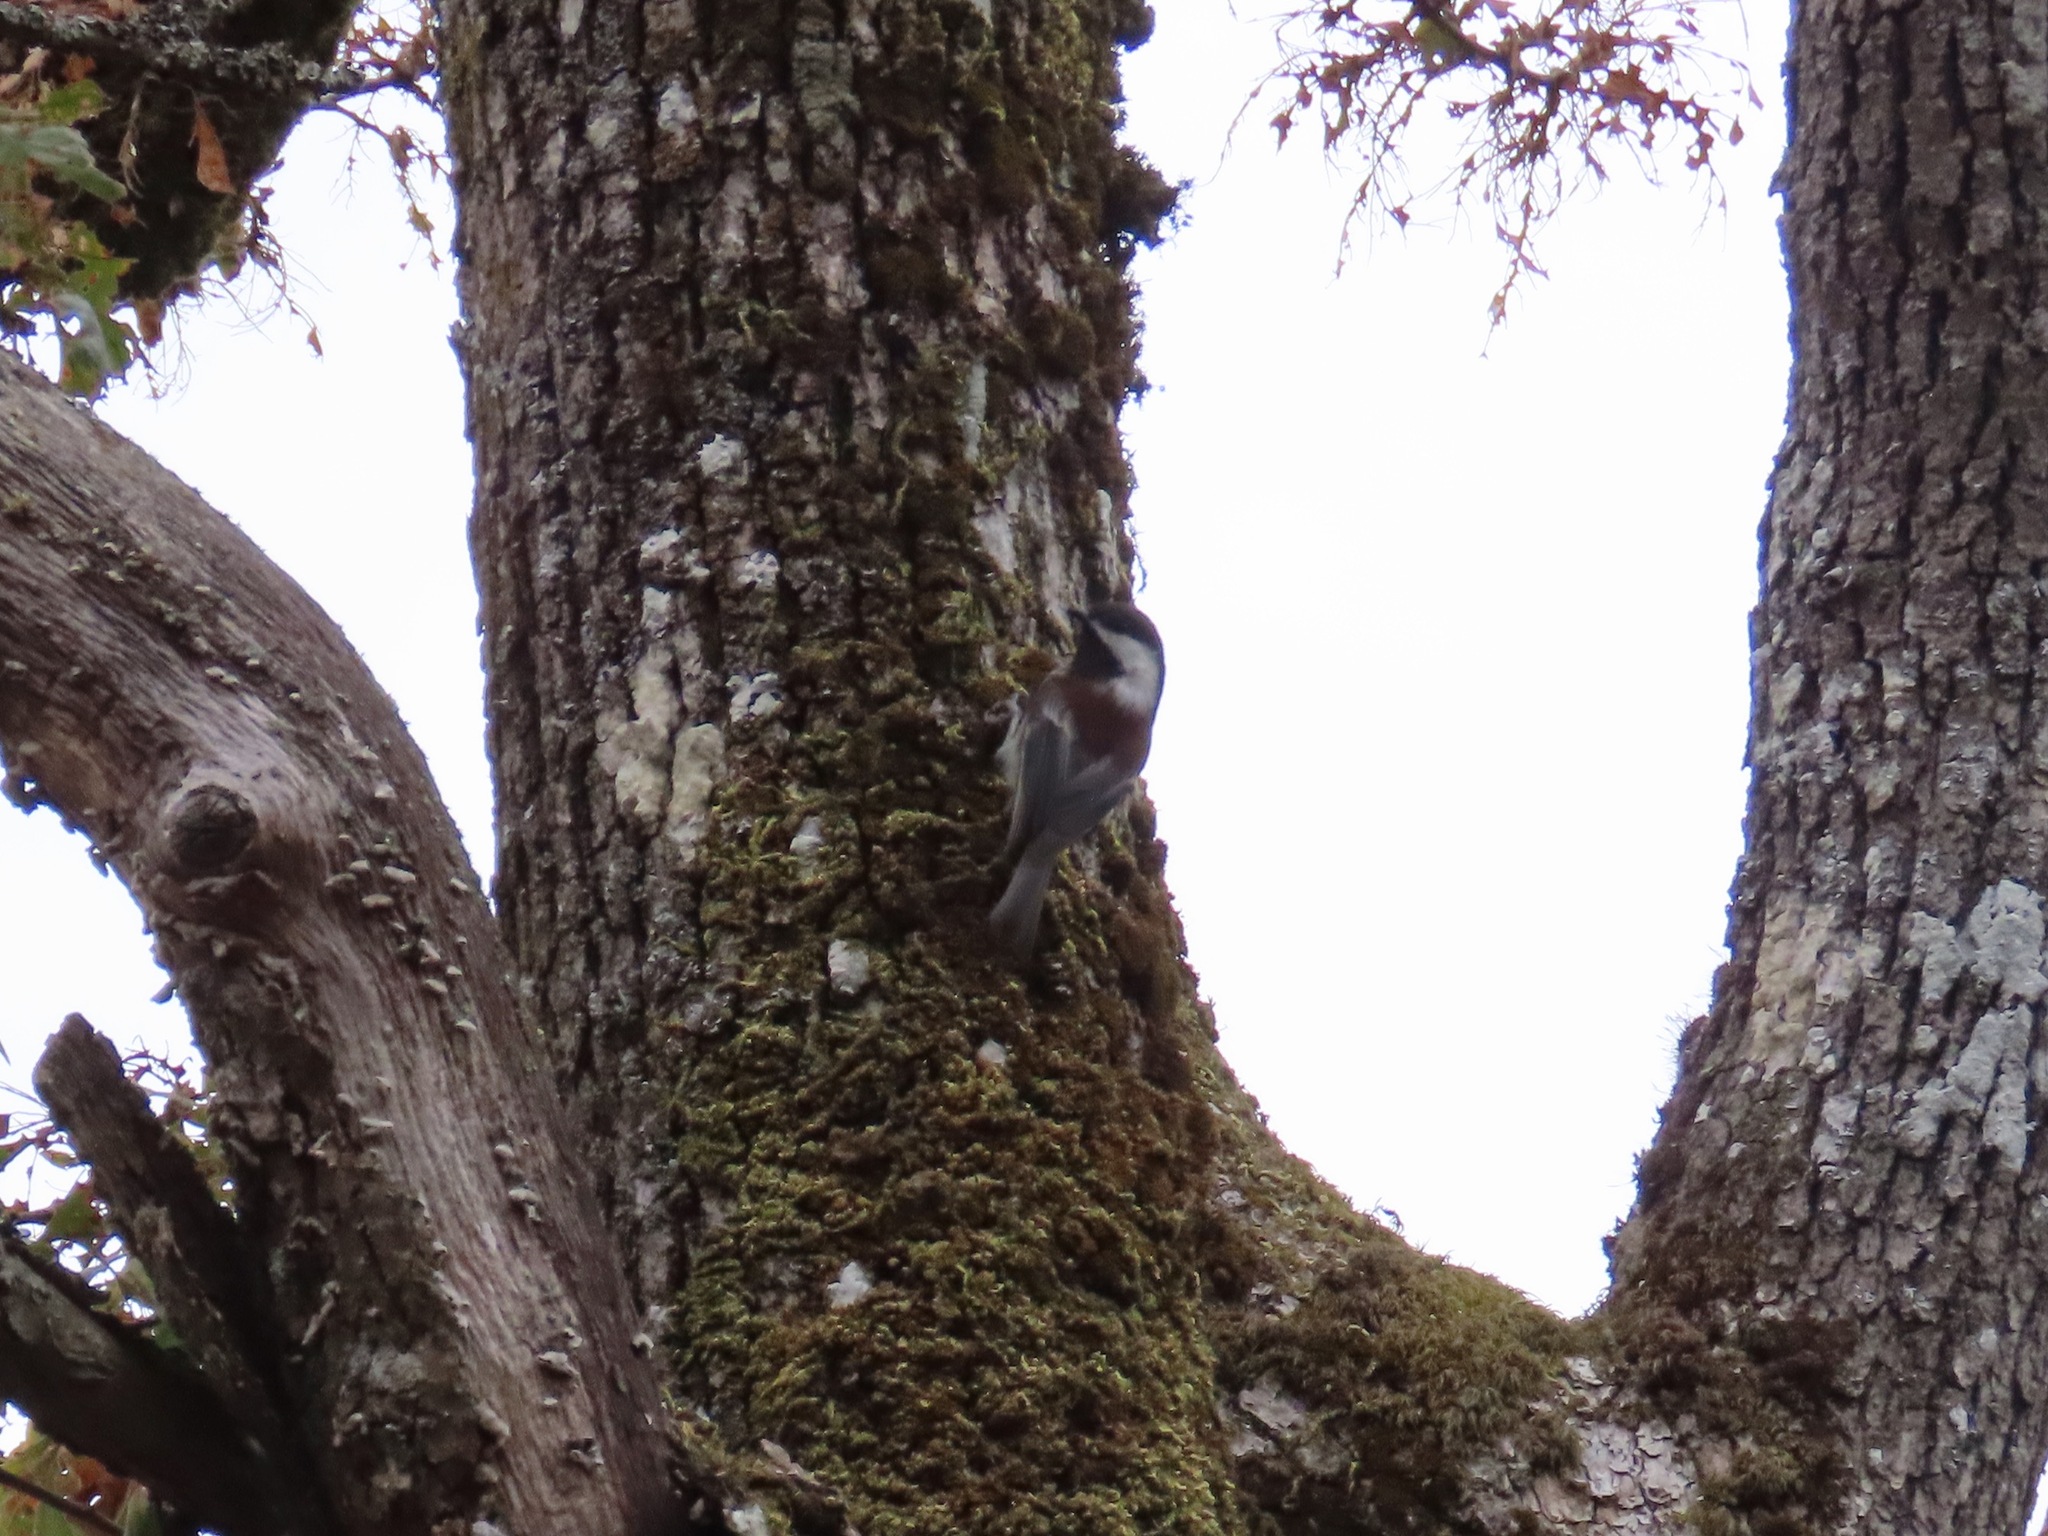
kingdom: Animalia
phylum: Chordata
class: Aves
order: Passeriformes
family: Paridae
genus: Poecile
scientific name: Poecile rufescens
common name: Chestnut-backed chickadee
